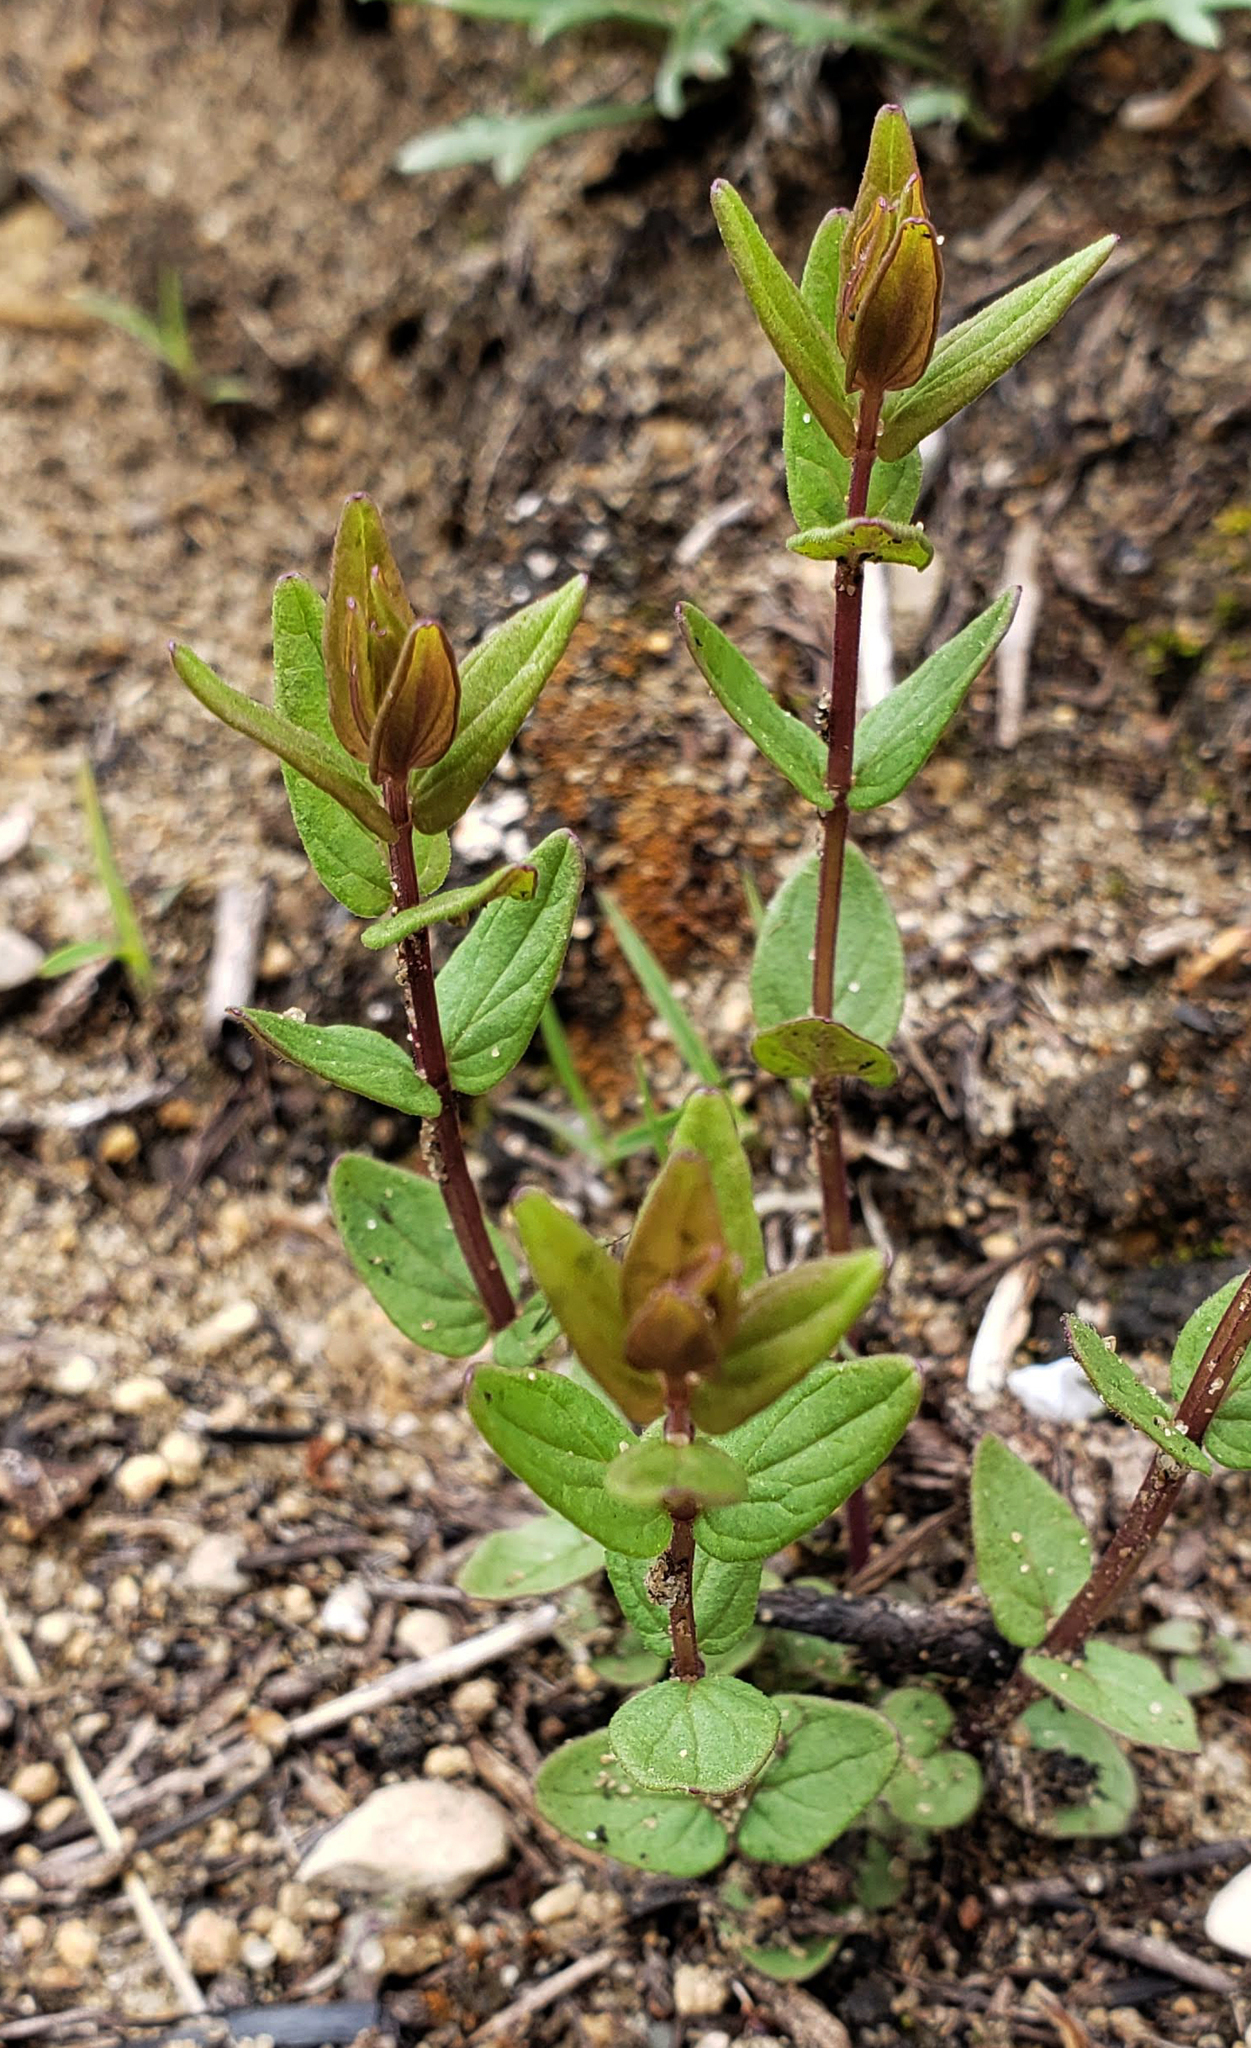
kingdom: Plantae
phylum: Tracheophyta
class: Magnoliopsida
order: Lamiales
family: Lamiaceae
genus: Scutellaria
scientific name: Scutellaria parvula
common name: Little scullcap
